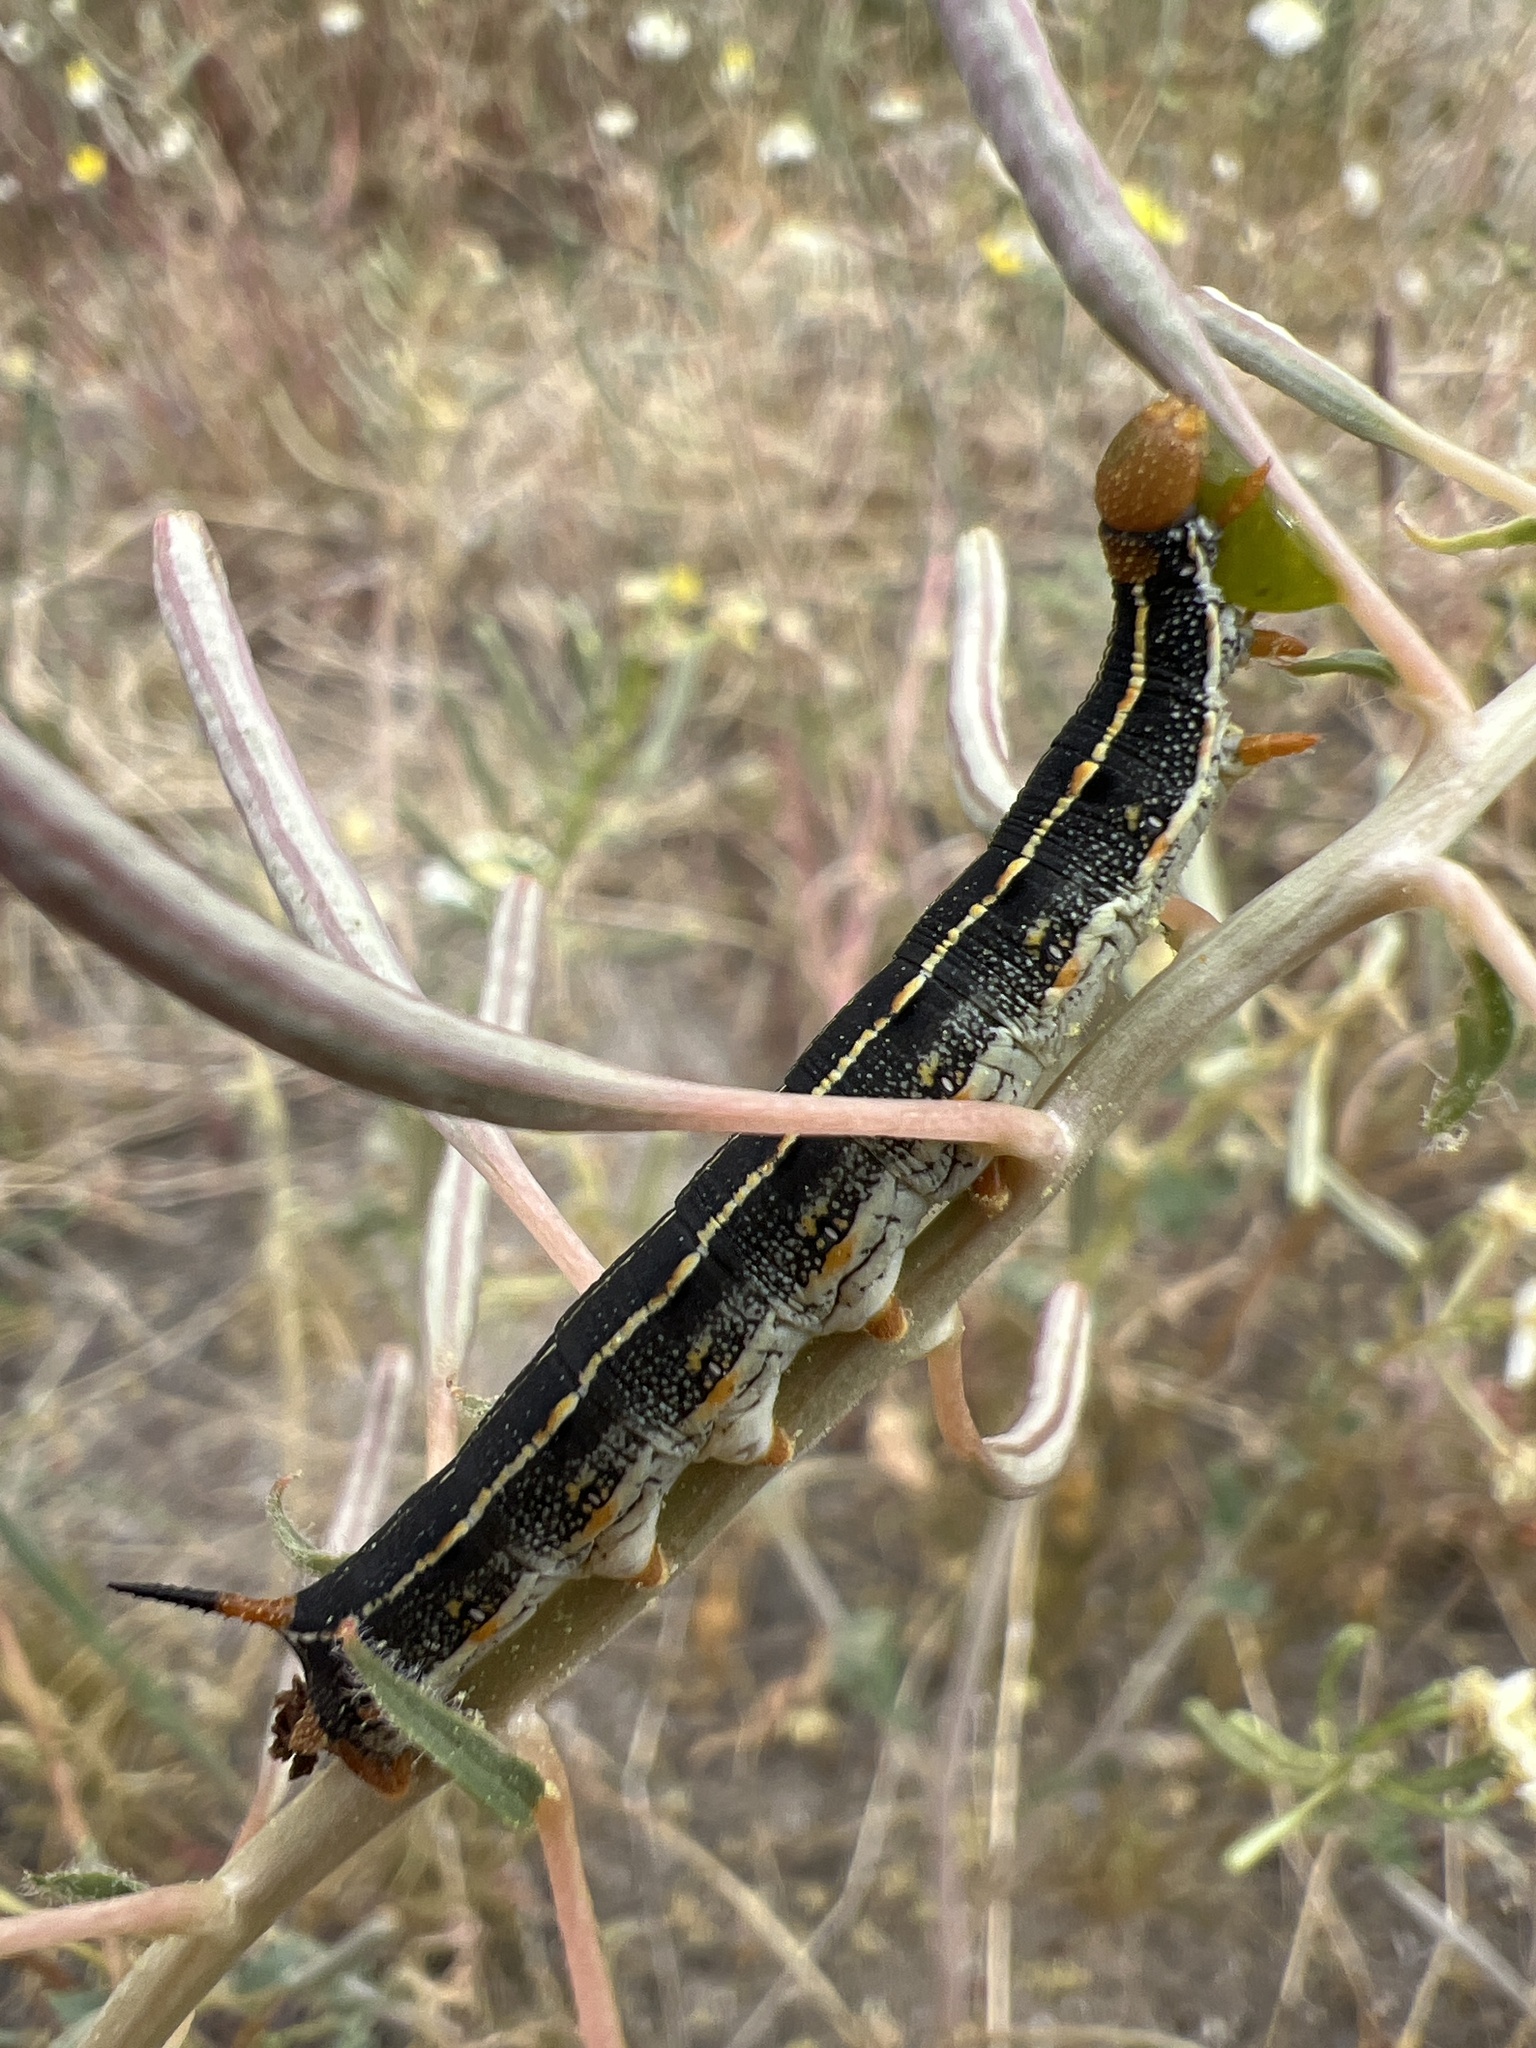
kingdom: Animalia
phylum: Arthropoda
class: Insecta
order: Lepidoptera
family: Sphingidae
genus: Hyles
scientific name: Hyles lineata
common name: White-lined sphinx
